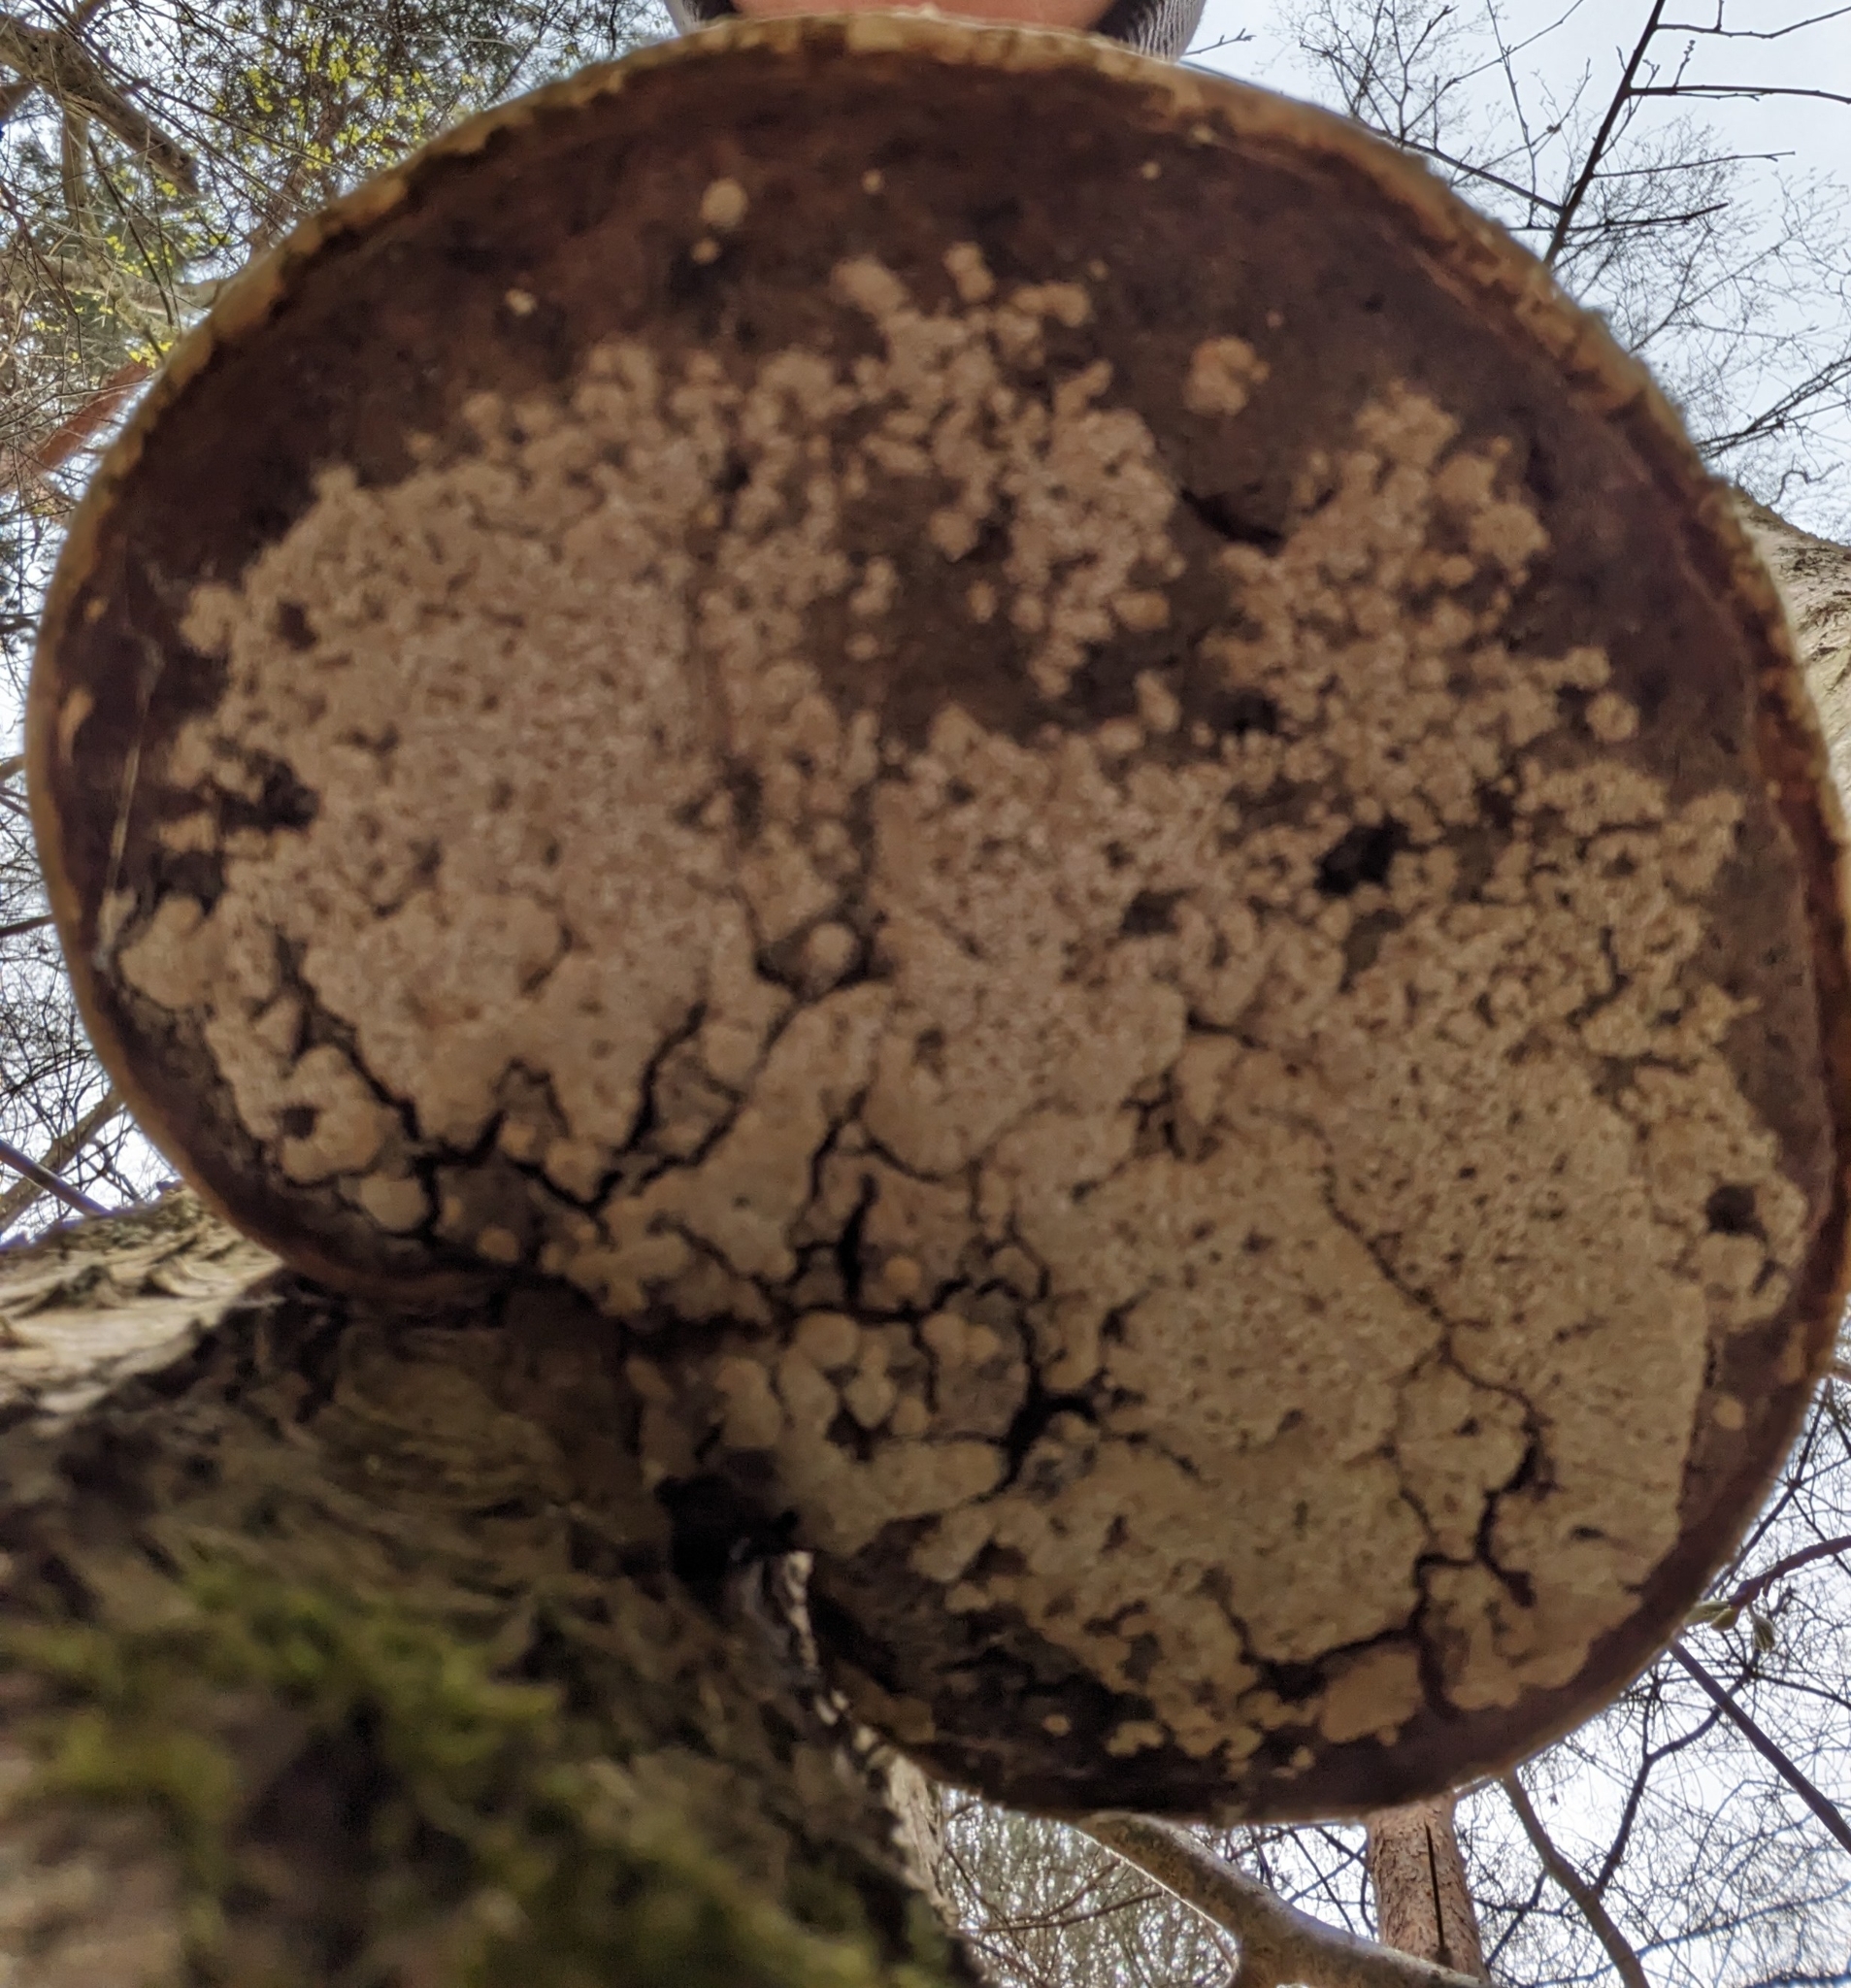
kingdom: Fungi
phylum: Basidiomycota
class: Agaricomycetes
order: Polyporales
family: Fomitopsidaceae
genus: Fomitopsis
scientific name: Fomitopsis betulina
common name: Birch polypore
